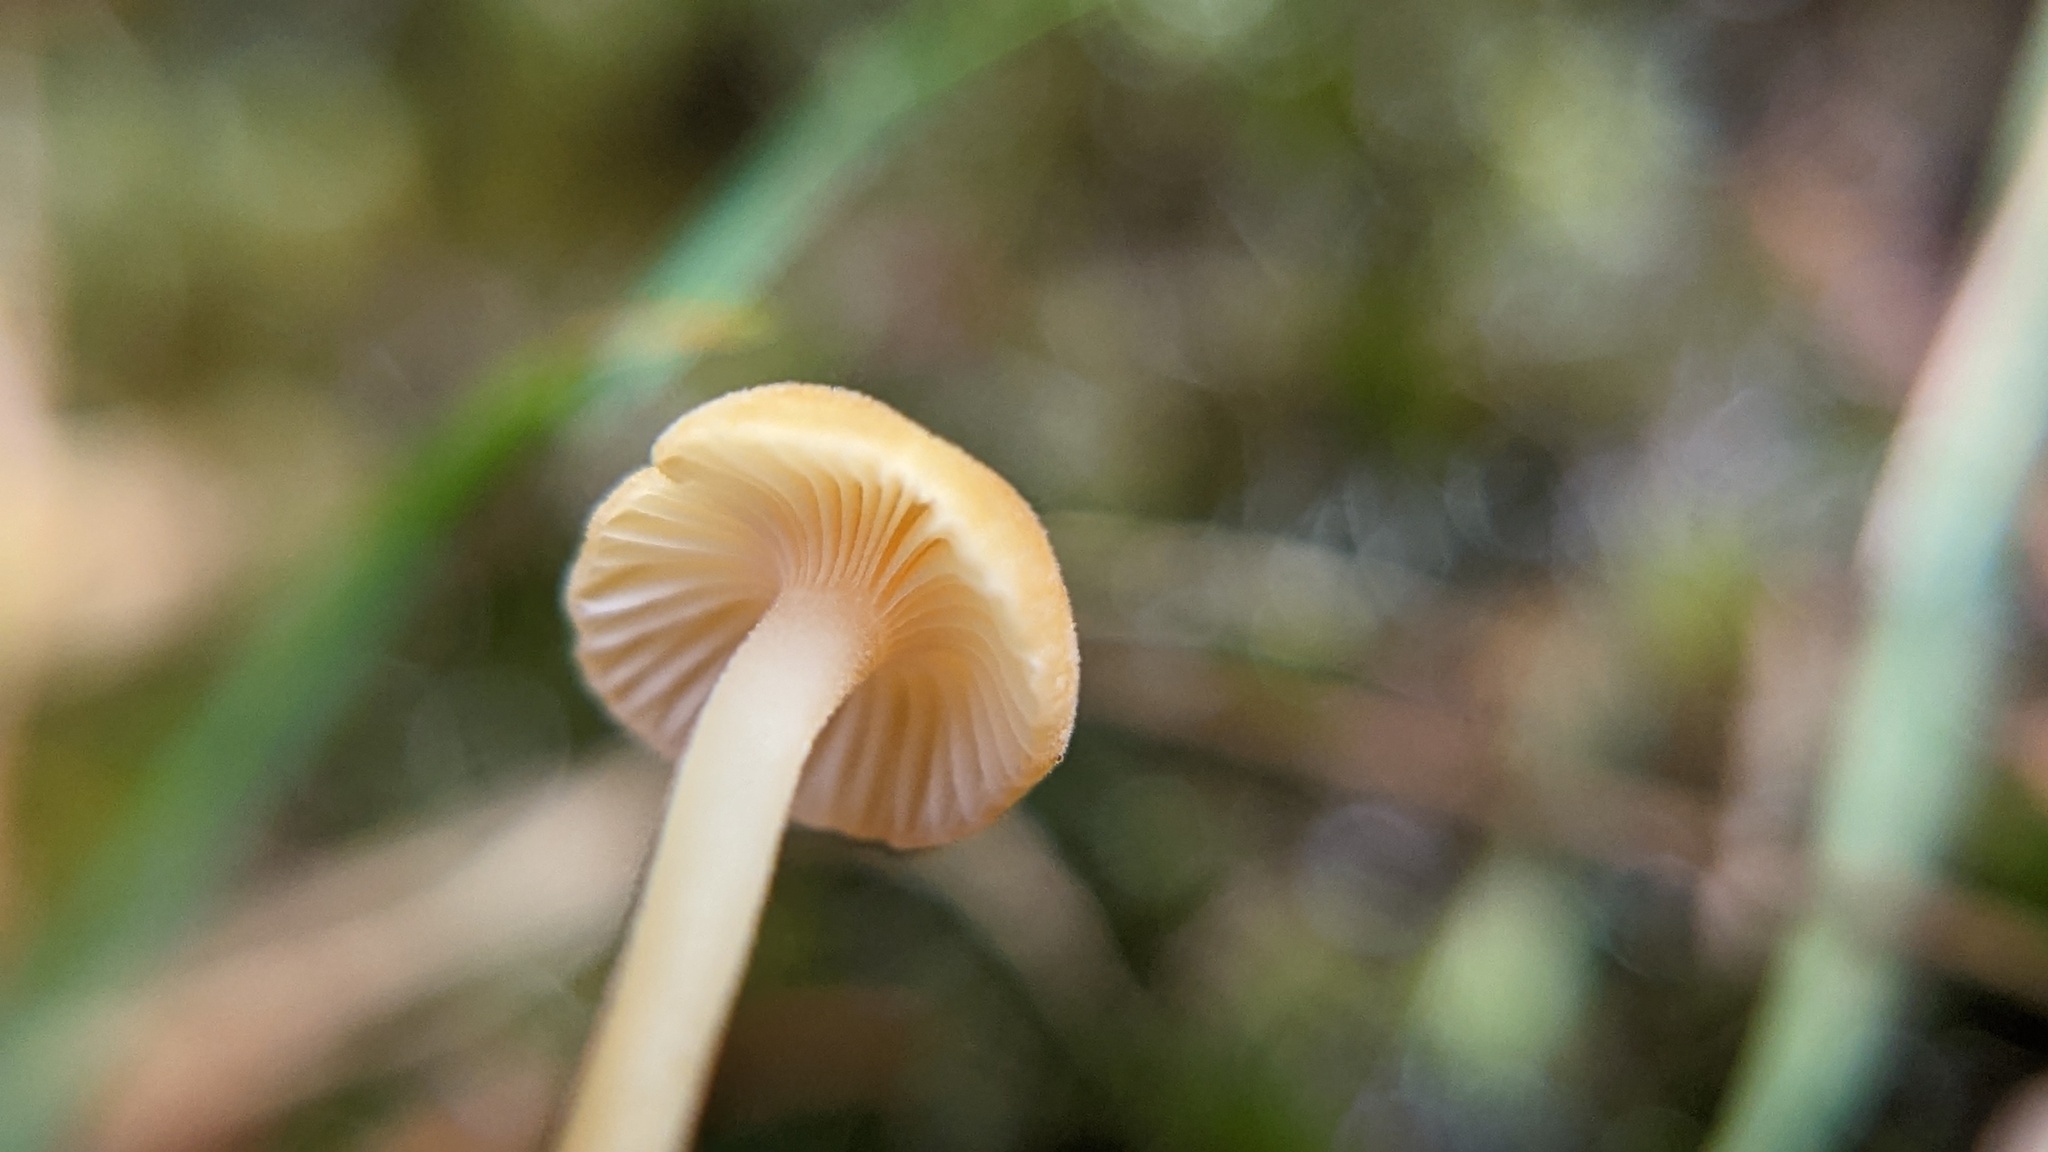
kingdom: Fungi
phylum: Basidiomycota
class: Agaricomycetes
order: Hymenochaetales
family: Rickenellaceae
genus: Rickenella
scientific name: Rickenella fibula
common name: Orange mosscap
